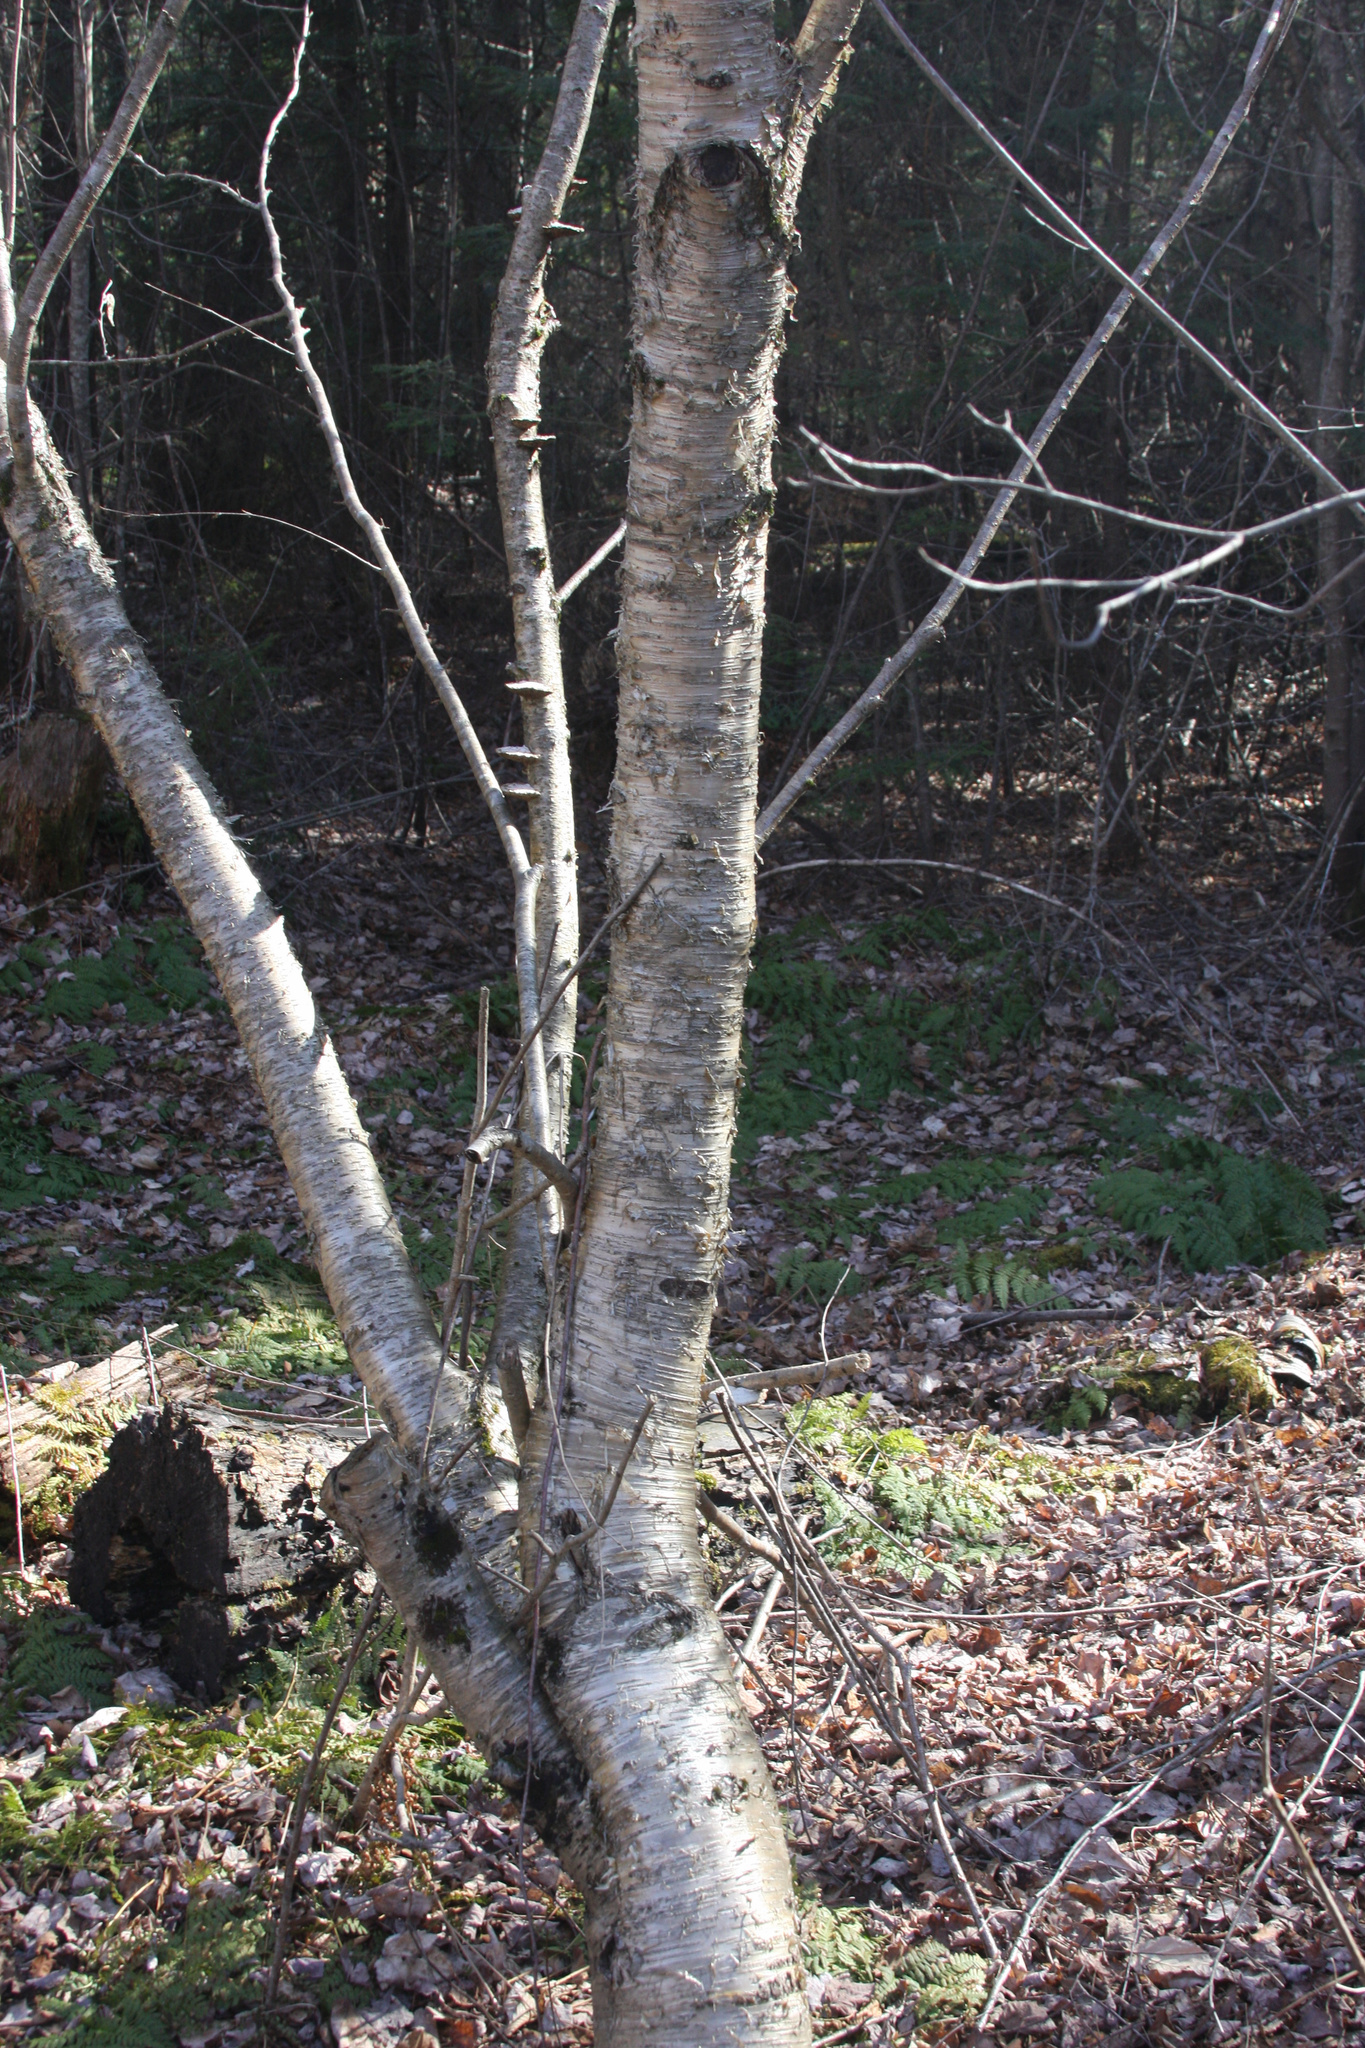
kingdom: Plantae
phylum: Tracheophyta
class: Magnoliopsida
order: Fagales
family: Betulaceae
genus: Betula
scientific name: Betula alleghaniensis
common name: Yellow birch
